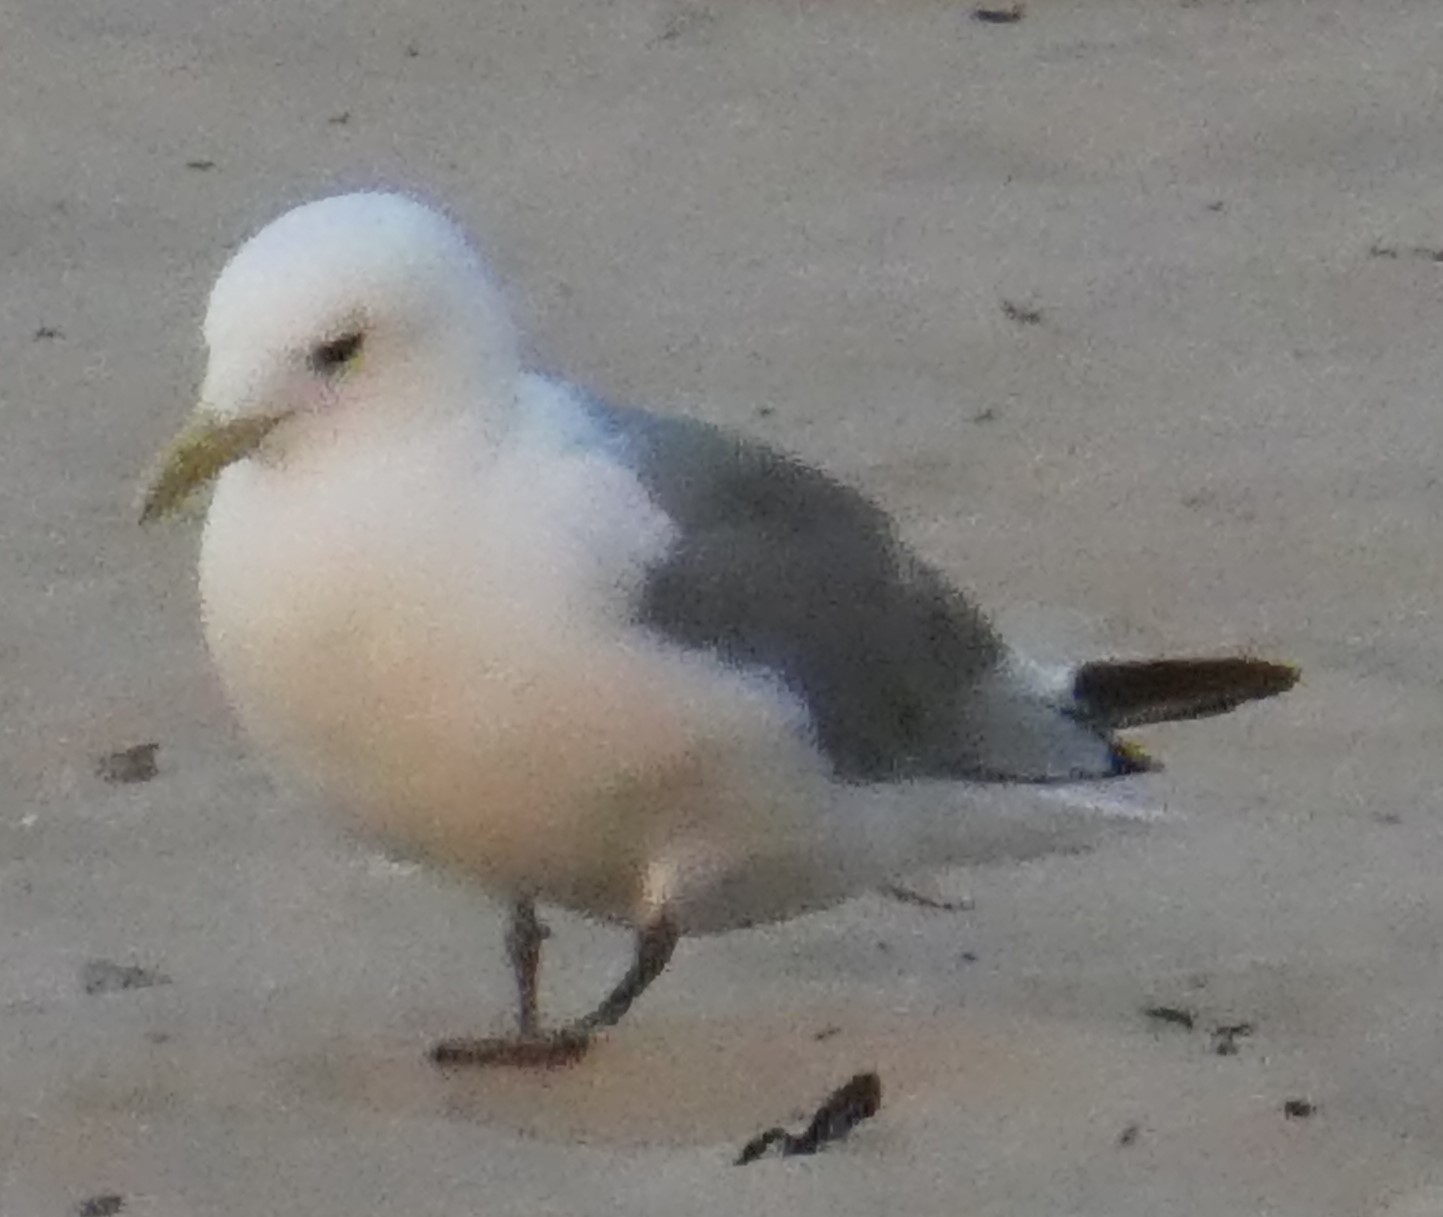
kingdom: Animalia
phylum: Chordata
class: Aves
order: Charadriiformes
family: Laridae
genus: Rissa
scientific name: Rissa tridactyla
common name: Black-legged kittiwake
